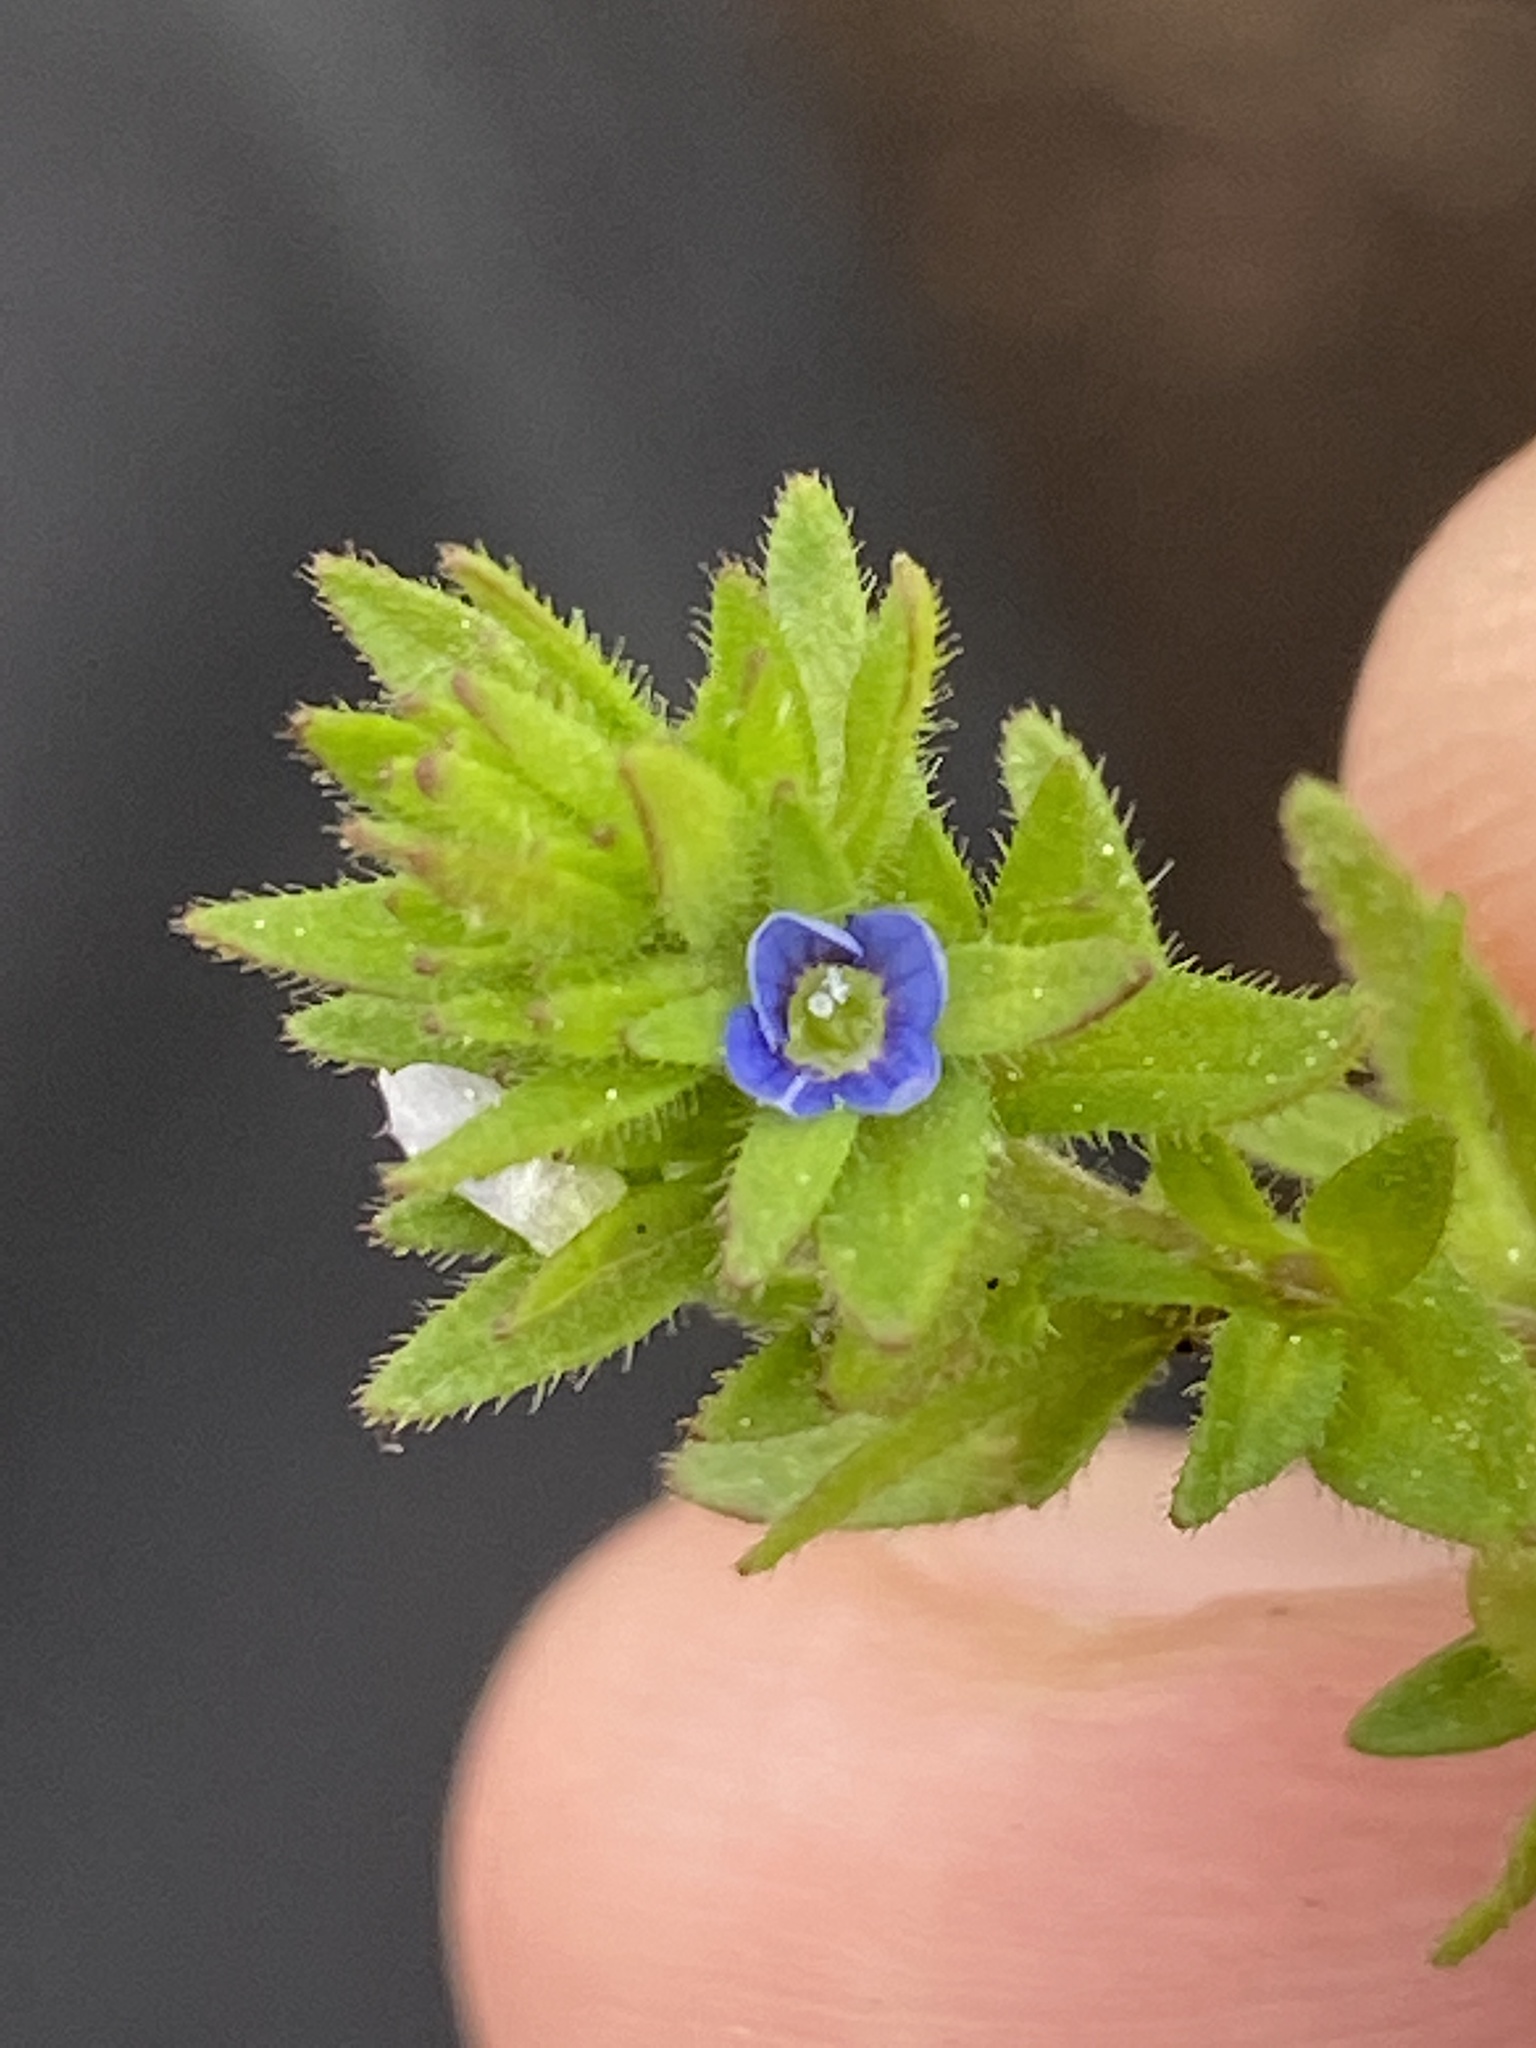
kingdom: Plantae
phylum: Tracheophyta
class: Magnoliopsida
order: Lamiales
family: Plantaginaceae
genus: Veronica
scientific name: Veronica arvensis
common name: Corn speedwell
